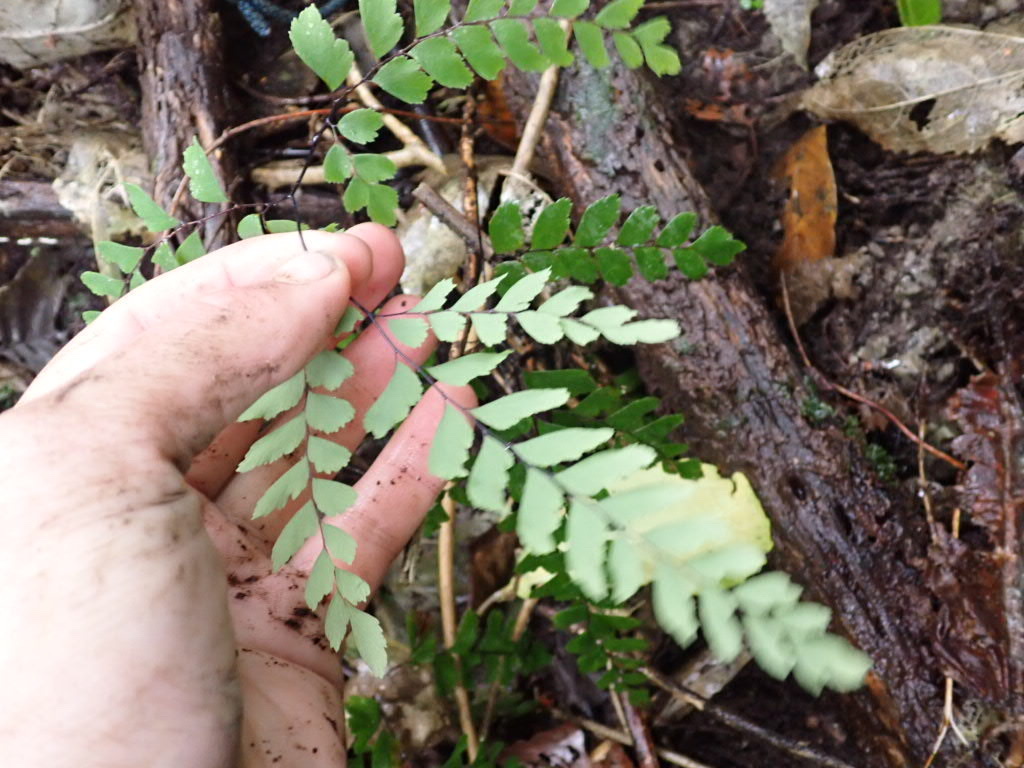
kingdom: Plantae
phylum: Tracheophyta
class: Polypodiopsida
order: Polypodiales
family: Pteridaceae
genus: Adiantum
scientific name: Adiantum cunninghamii
